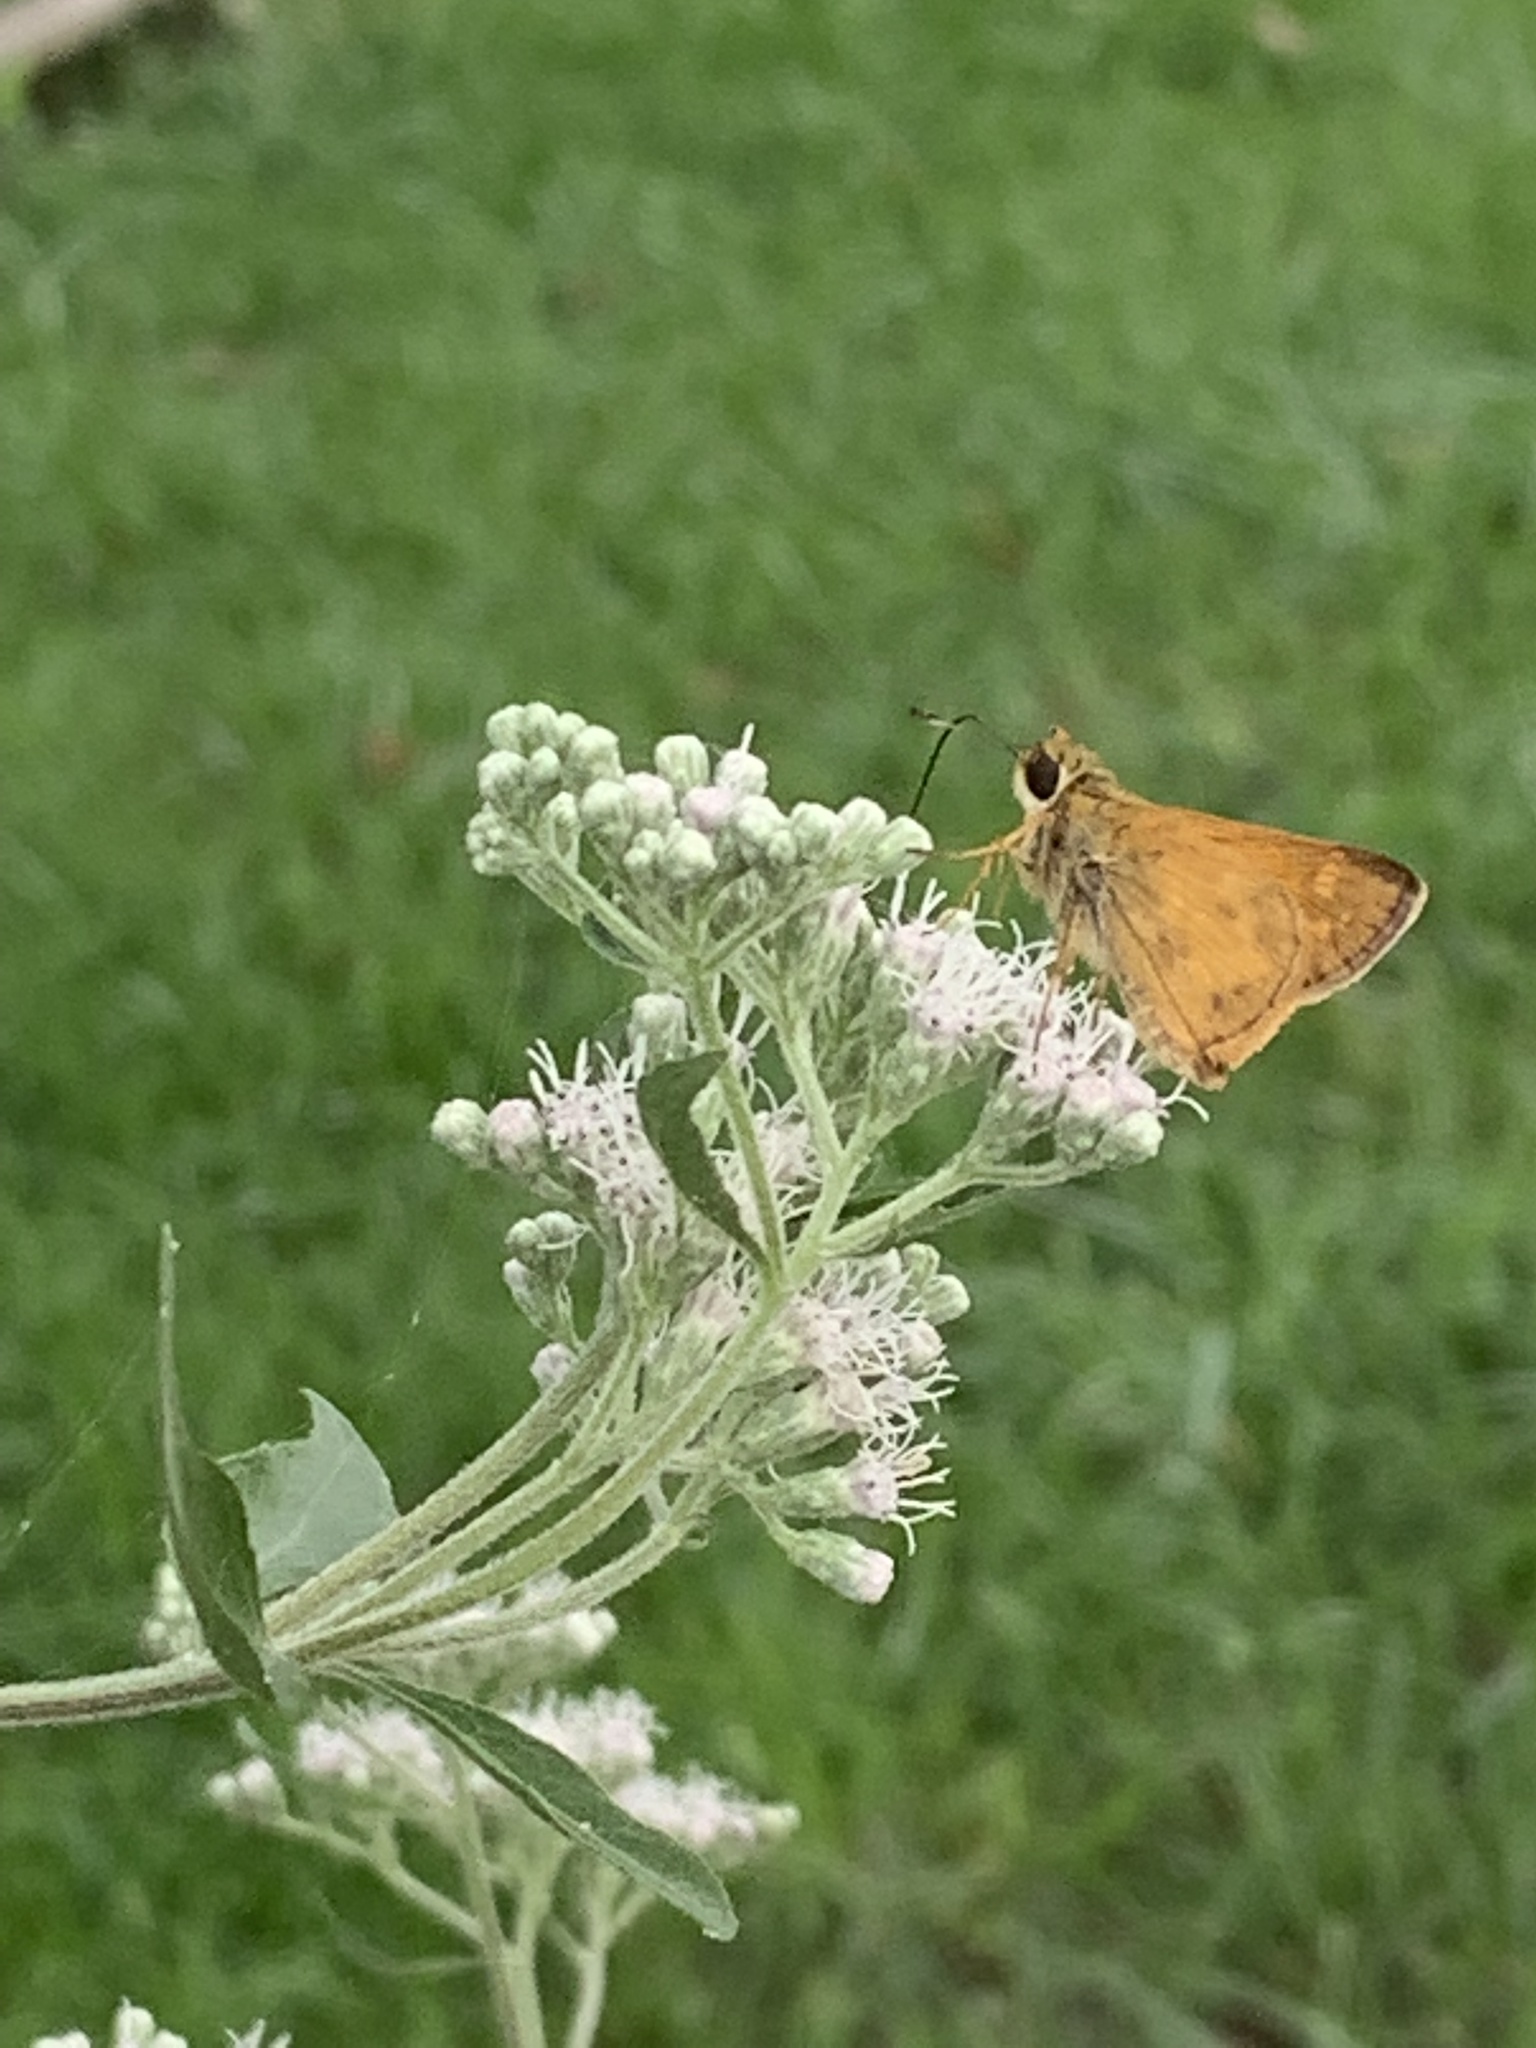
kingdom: Animalia
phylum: Arthropoda
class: Insecta
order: Lepidoptera
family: Hesperiidae
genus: Atalopedes
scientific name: Atalopedes
